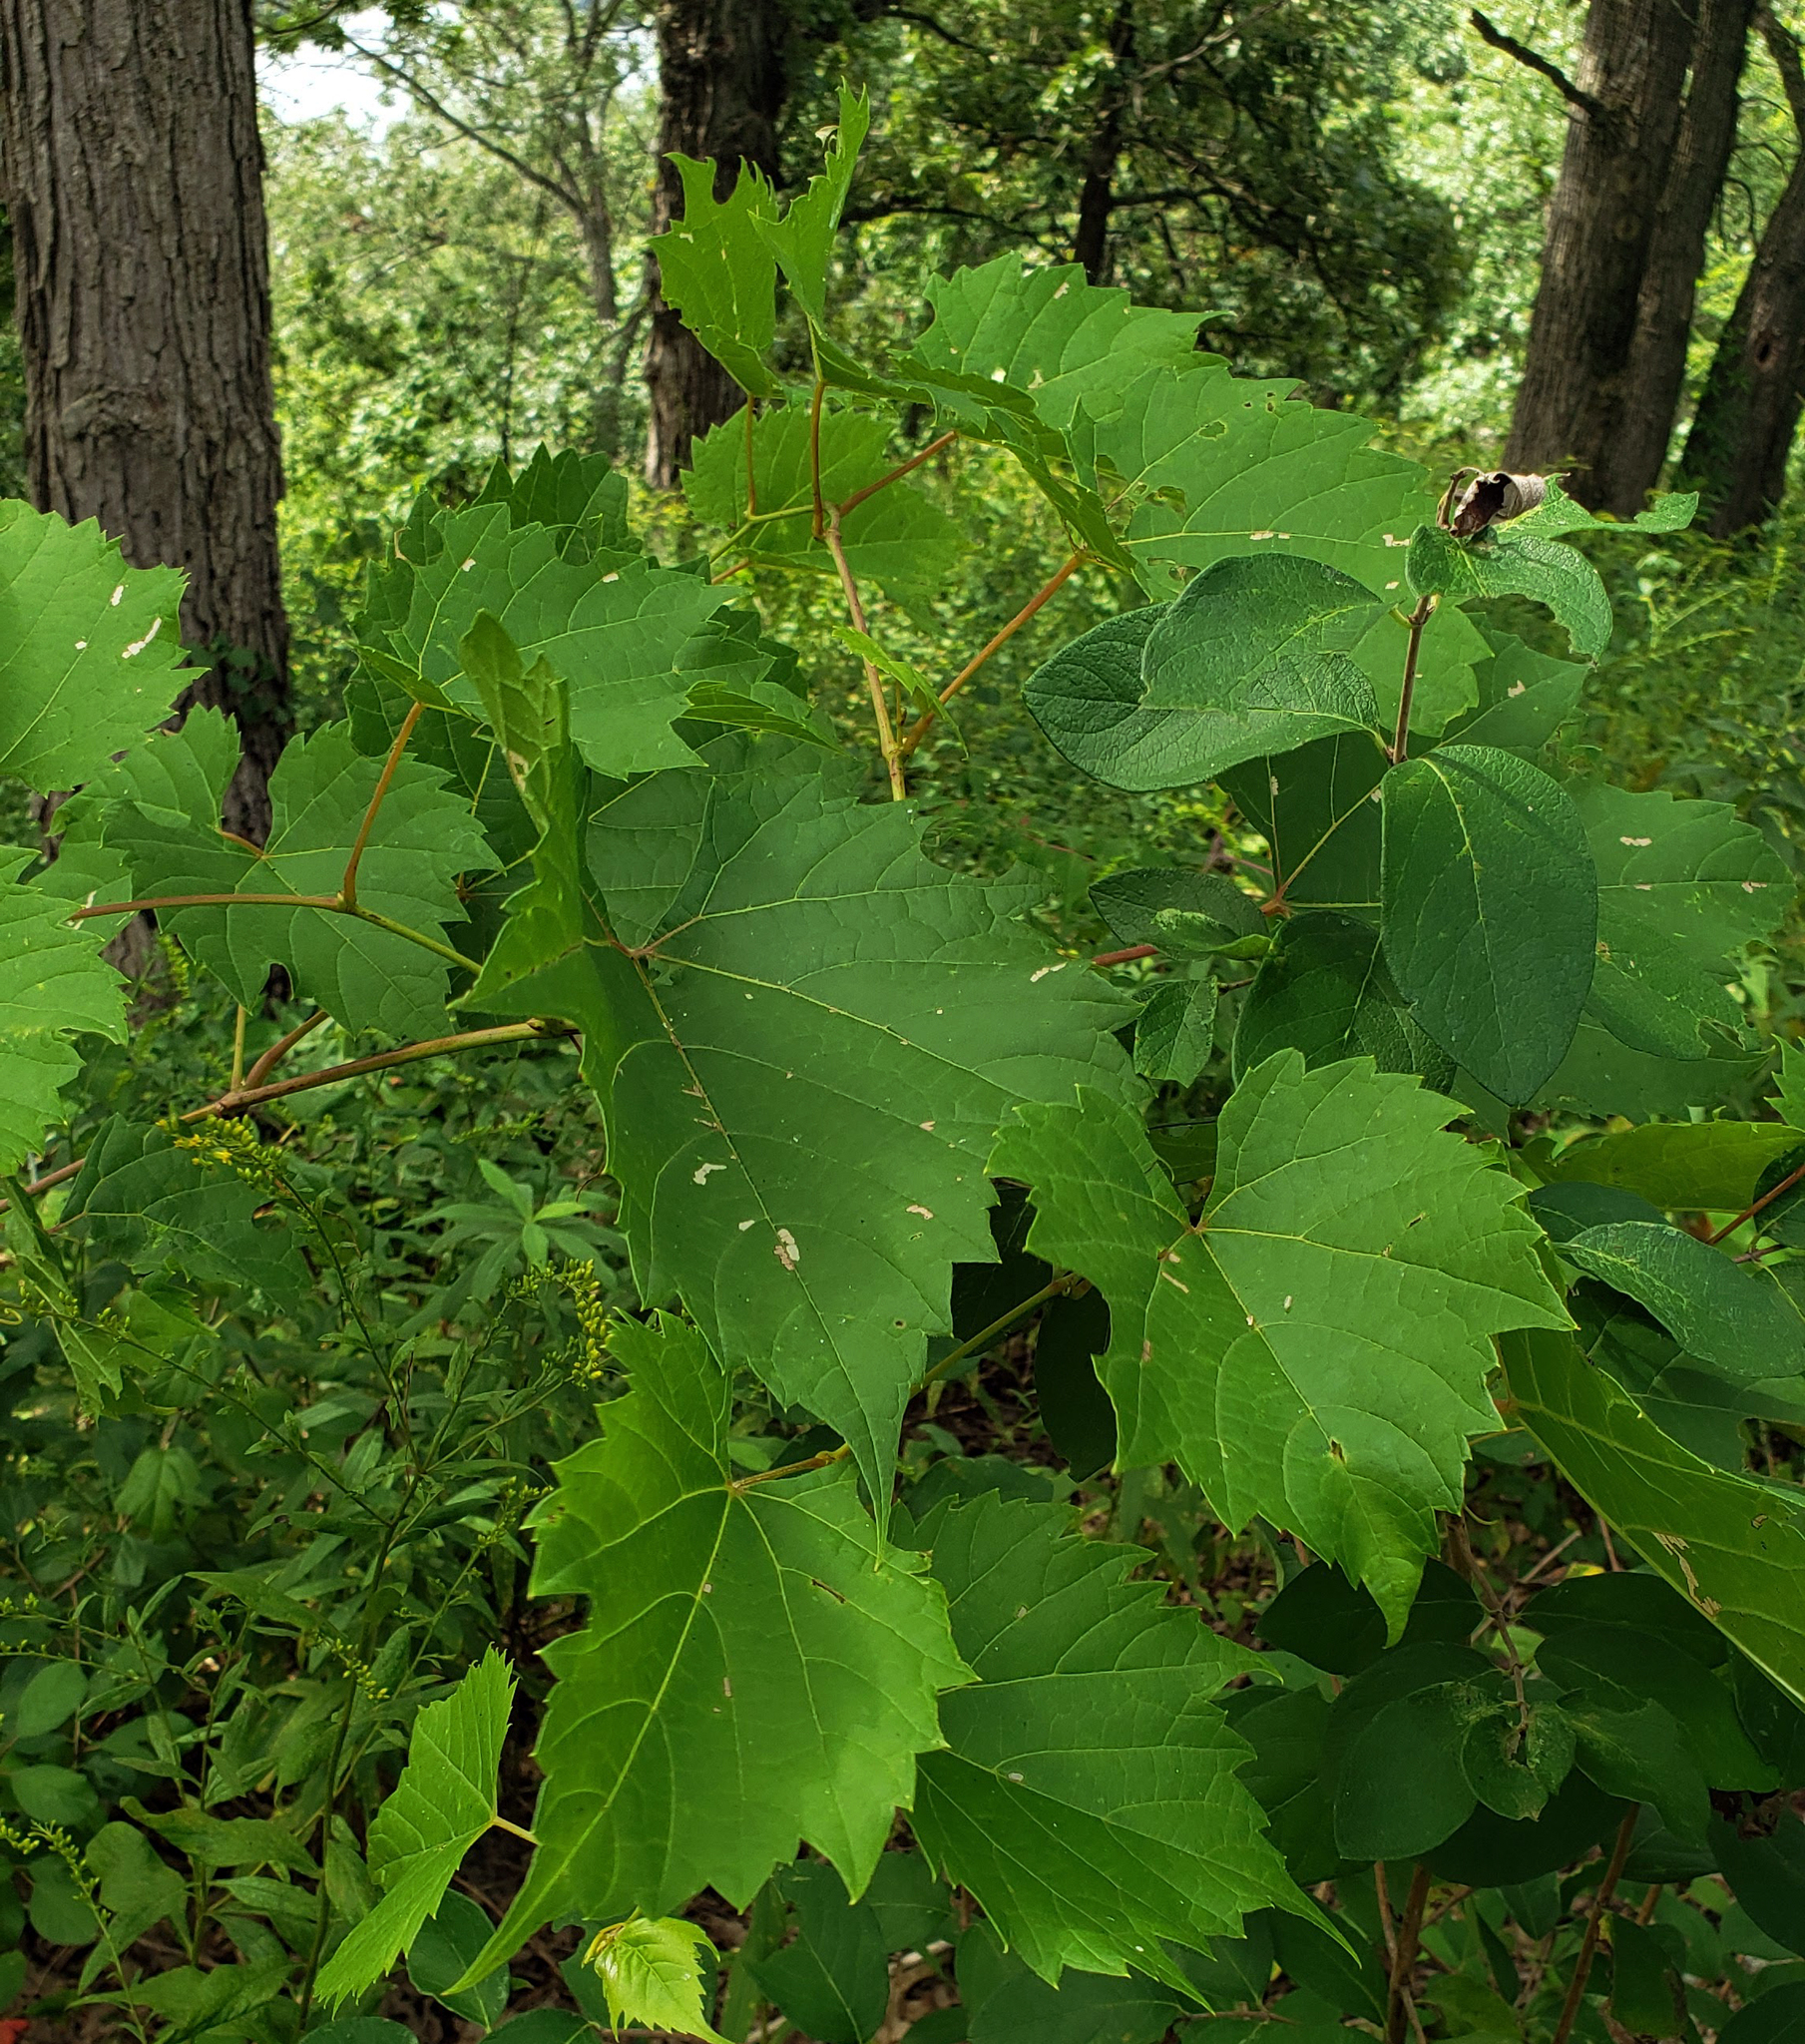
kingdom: Plantae
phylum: Tracheophyta
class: Magnoliopsida
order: Vitales
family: Vitaceae
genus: Vitis
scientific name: Vitis riparia
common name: Frost grape
